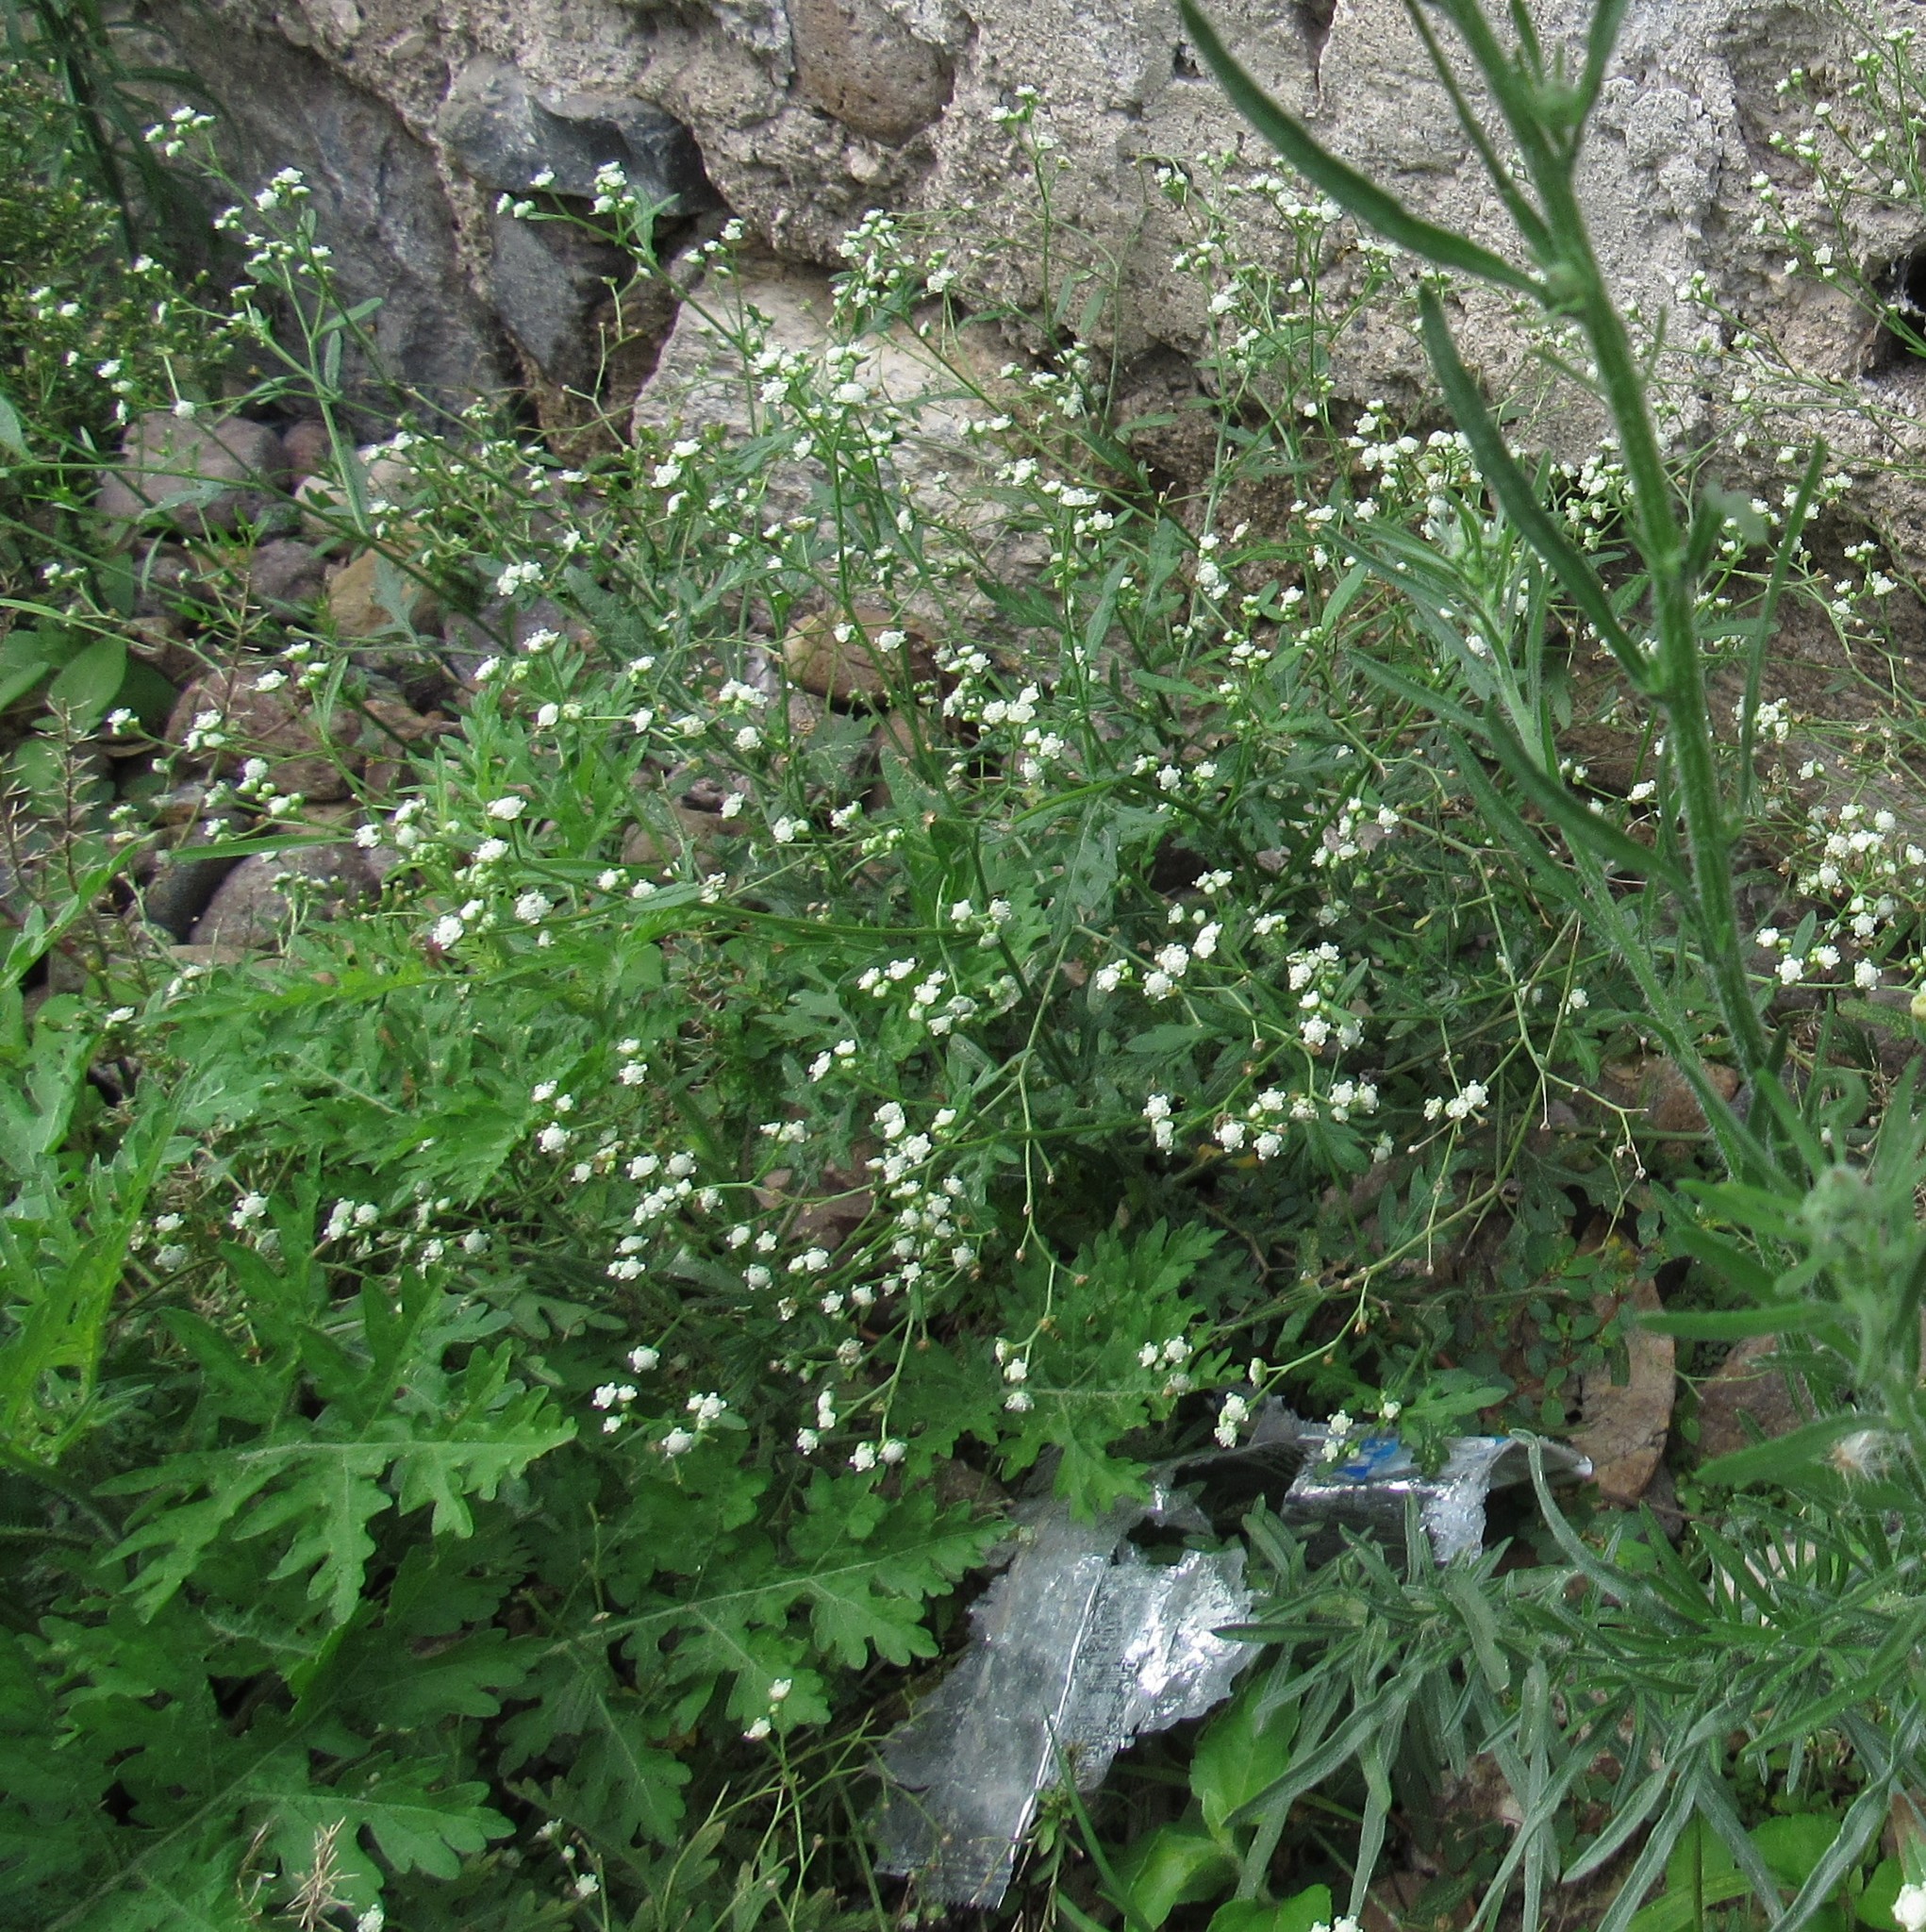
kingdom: Plantae
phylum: Tracheophyta
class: Magnoliopsida
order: Asterales
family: Asteraceae
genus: Parthenium
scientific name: Parthenium hysterophorus
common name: Santa maria feverfew
